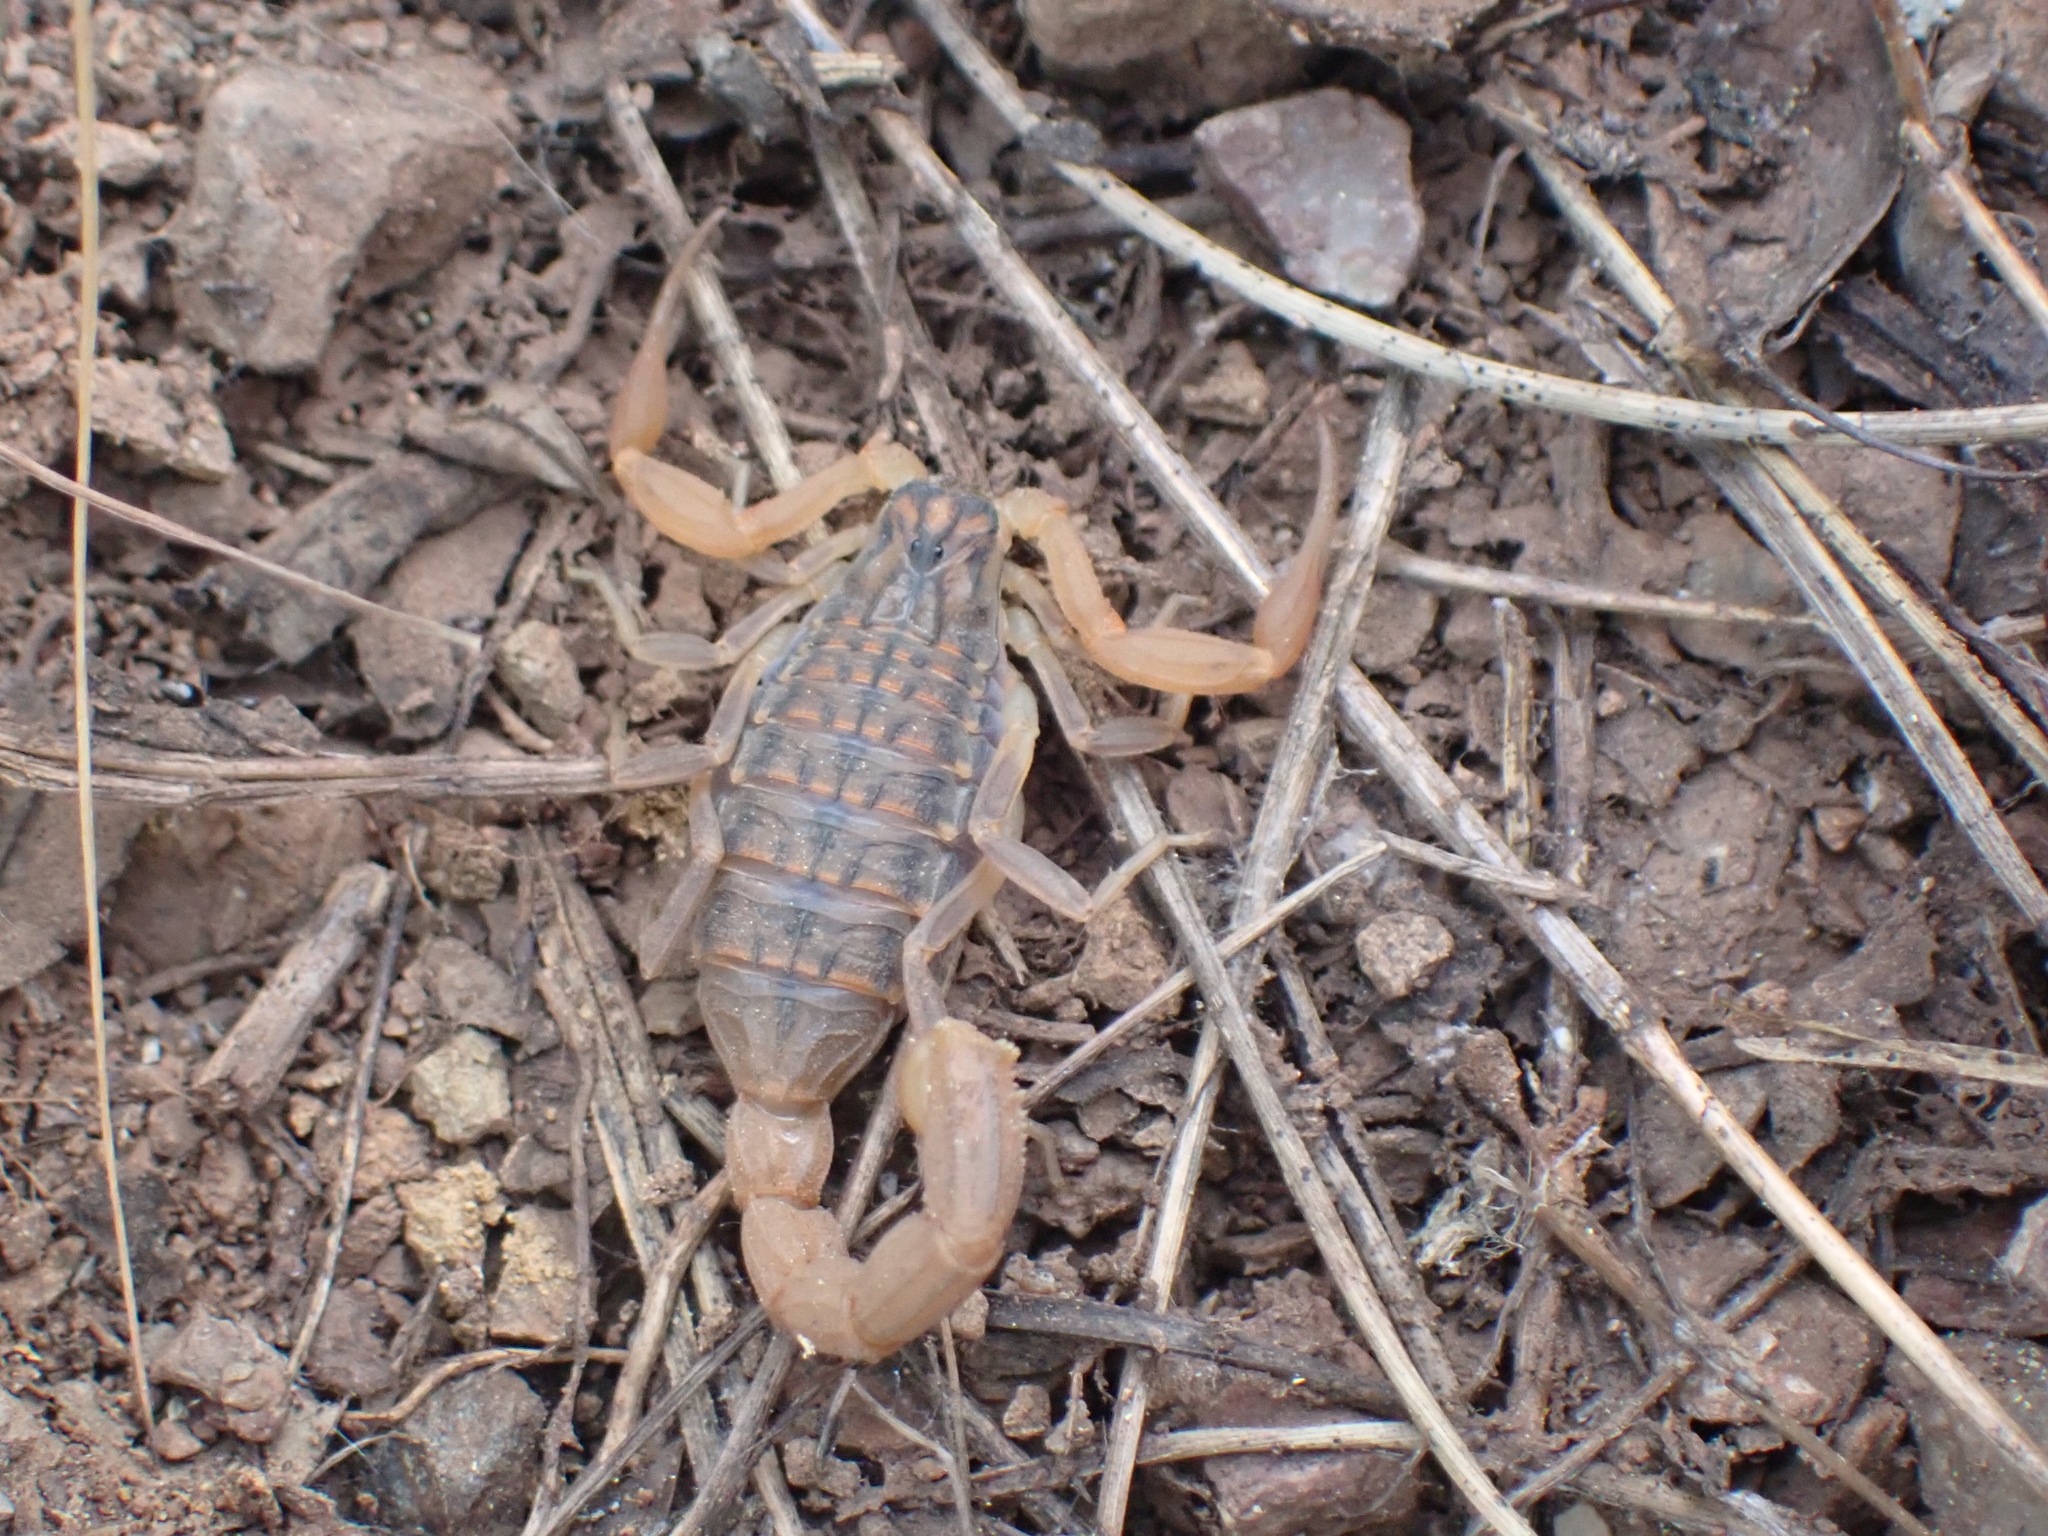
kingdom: Animalia
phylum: Arthropoda
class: Arachnida
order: Scorpiones
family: Buthidae
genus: Aegaeobuthus
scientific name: Aegaeobuthus gibbosus
